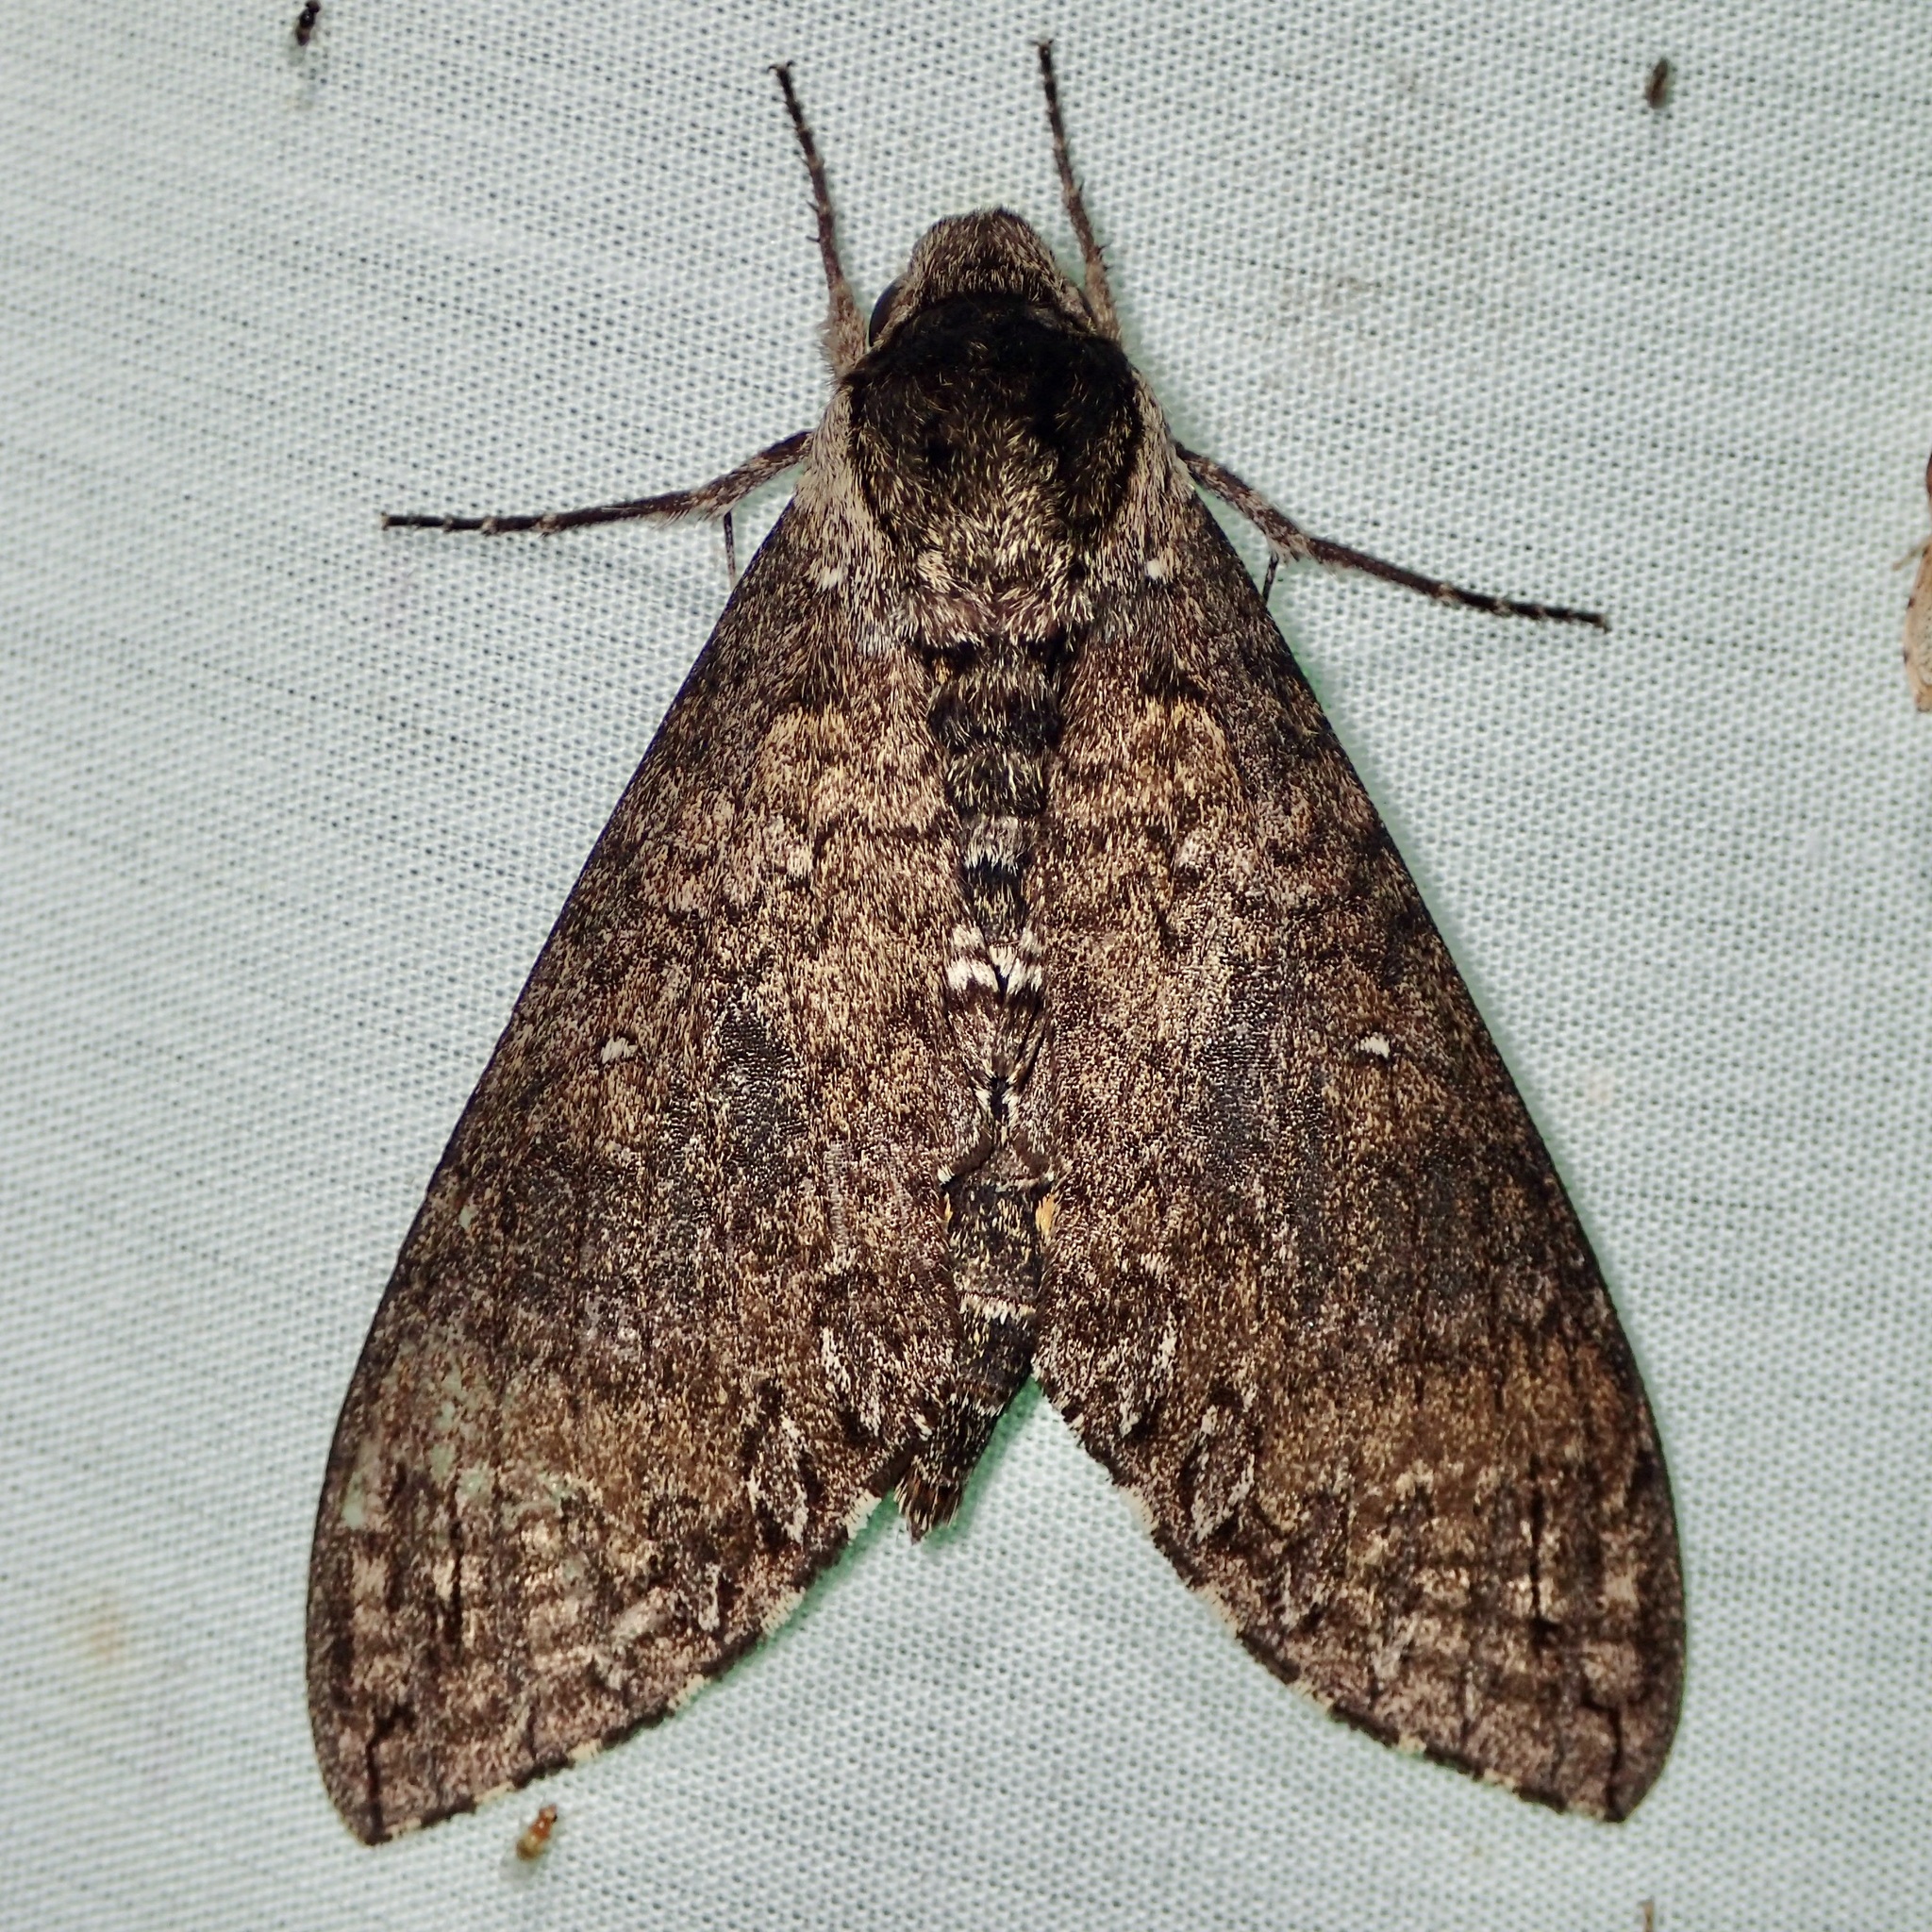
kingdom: Animalia
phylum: Arthropoda
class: Insecta
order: Lepidoptera
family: Sphingidae
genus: Manduca
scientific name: Manduca occulta
